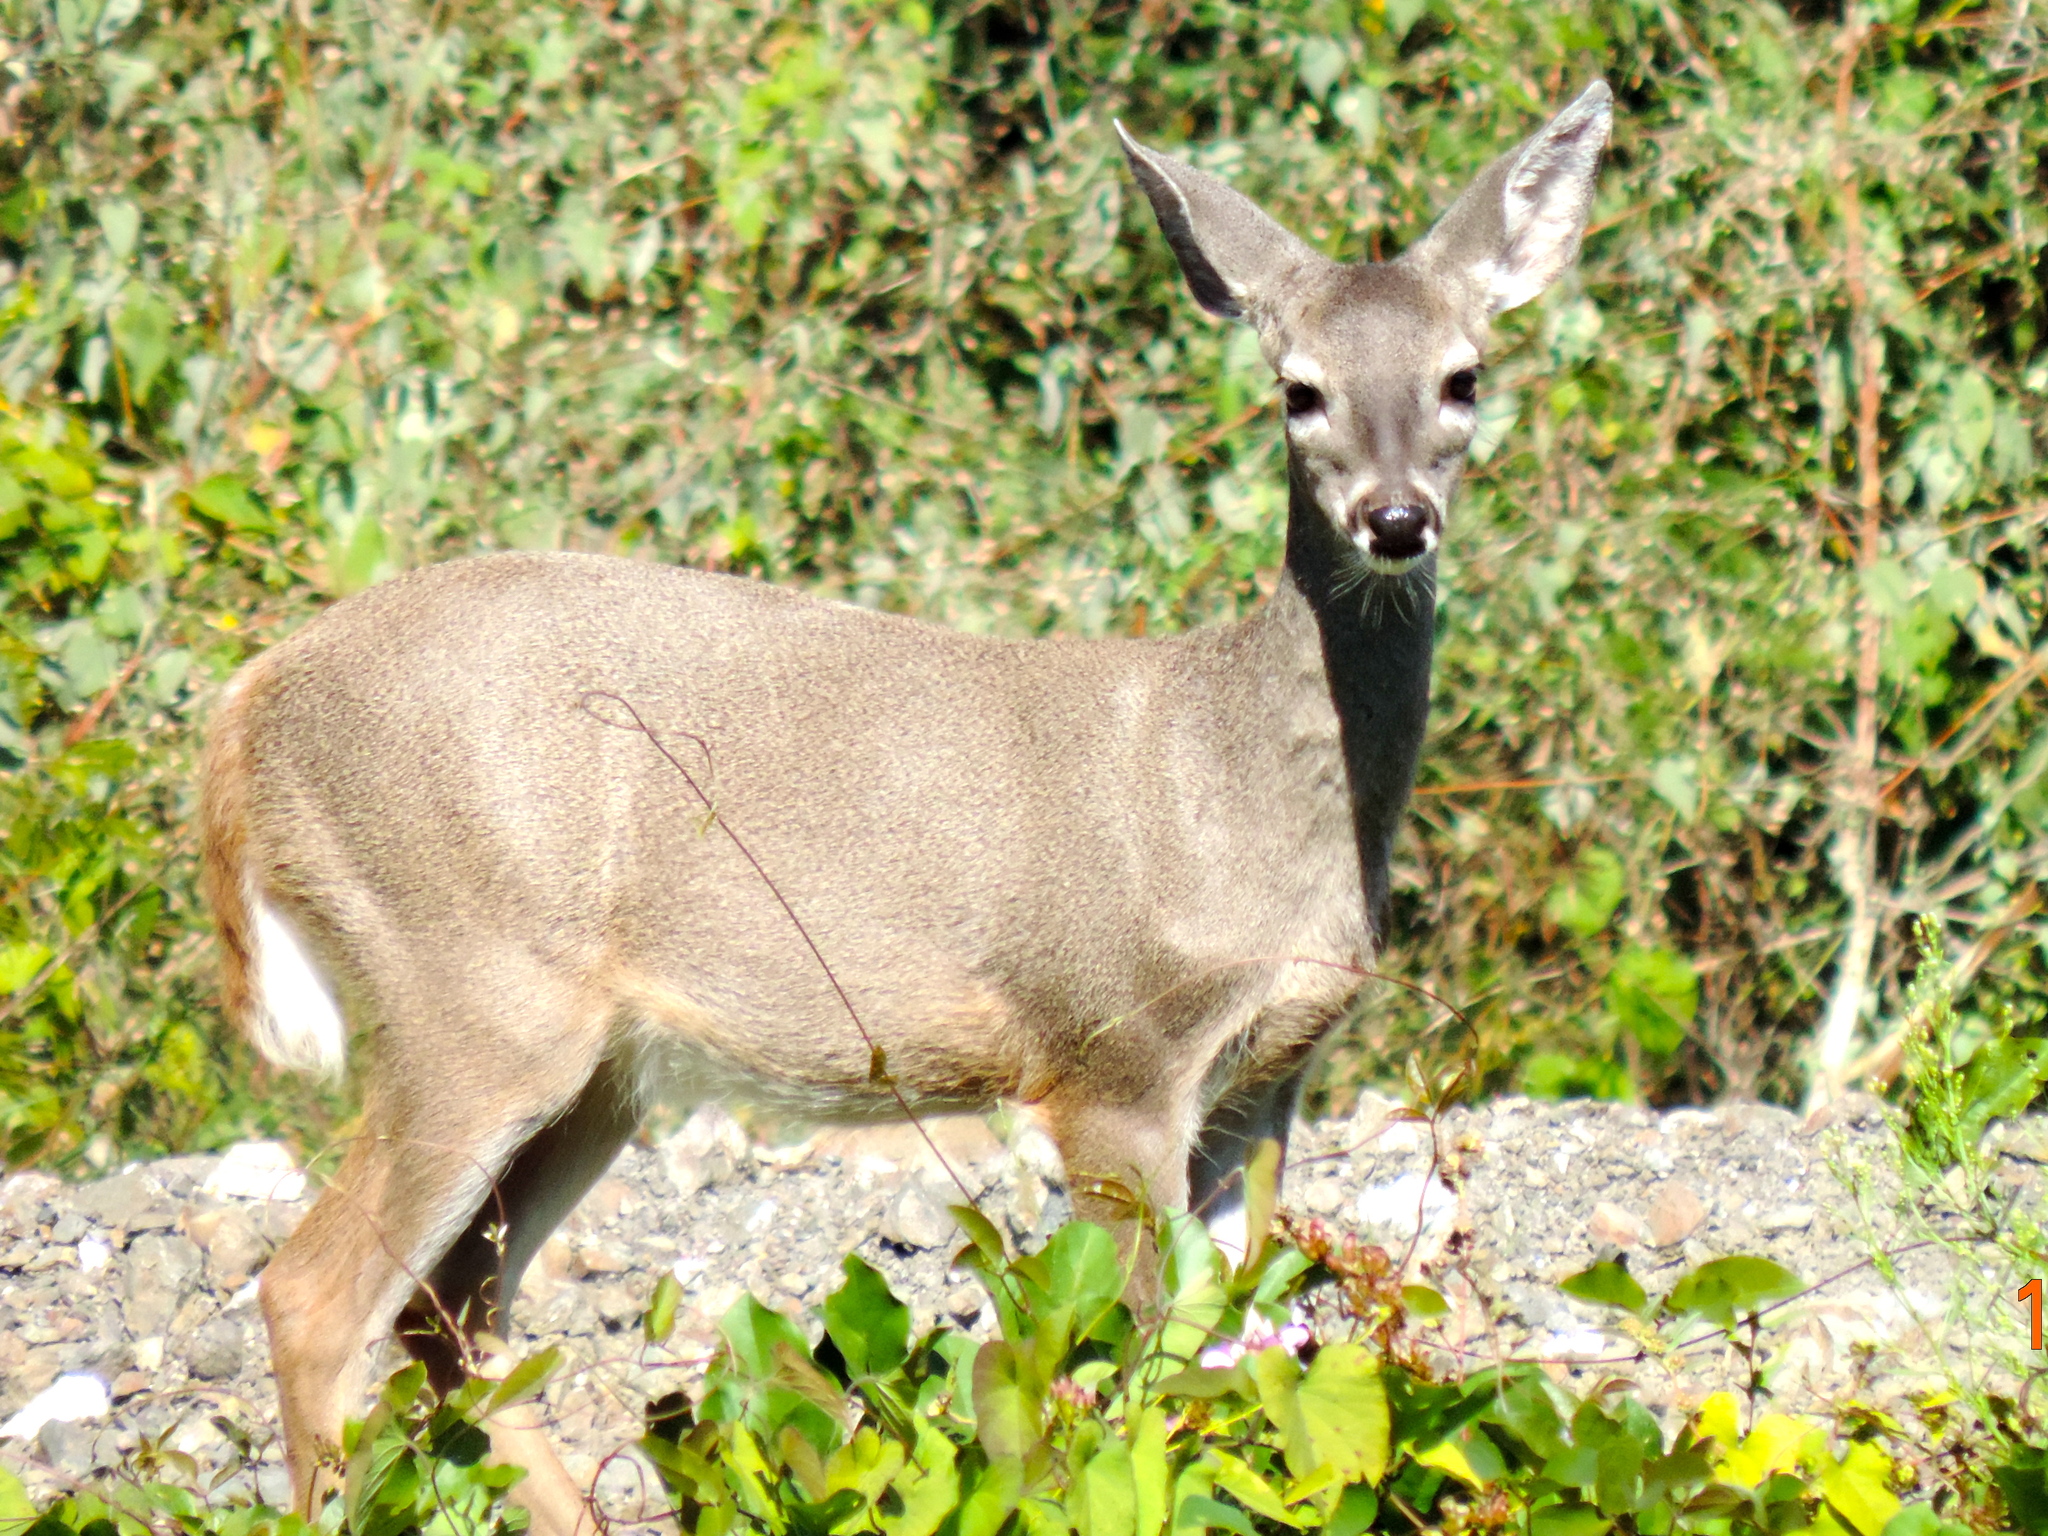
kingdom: Animalia
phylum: Chordata
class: Mammalia
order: Artiodactyla
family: Cervidae
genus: Odocoileus
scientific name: Odocoileus virginianus
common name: White-tailed deer
